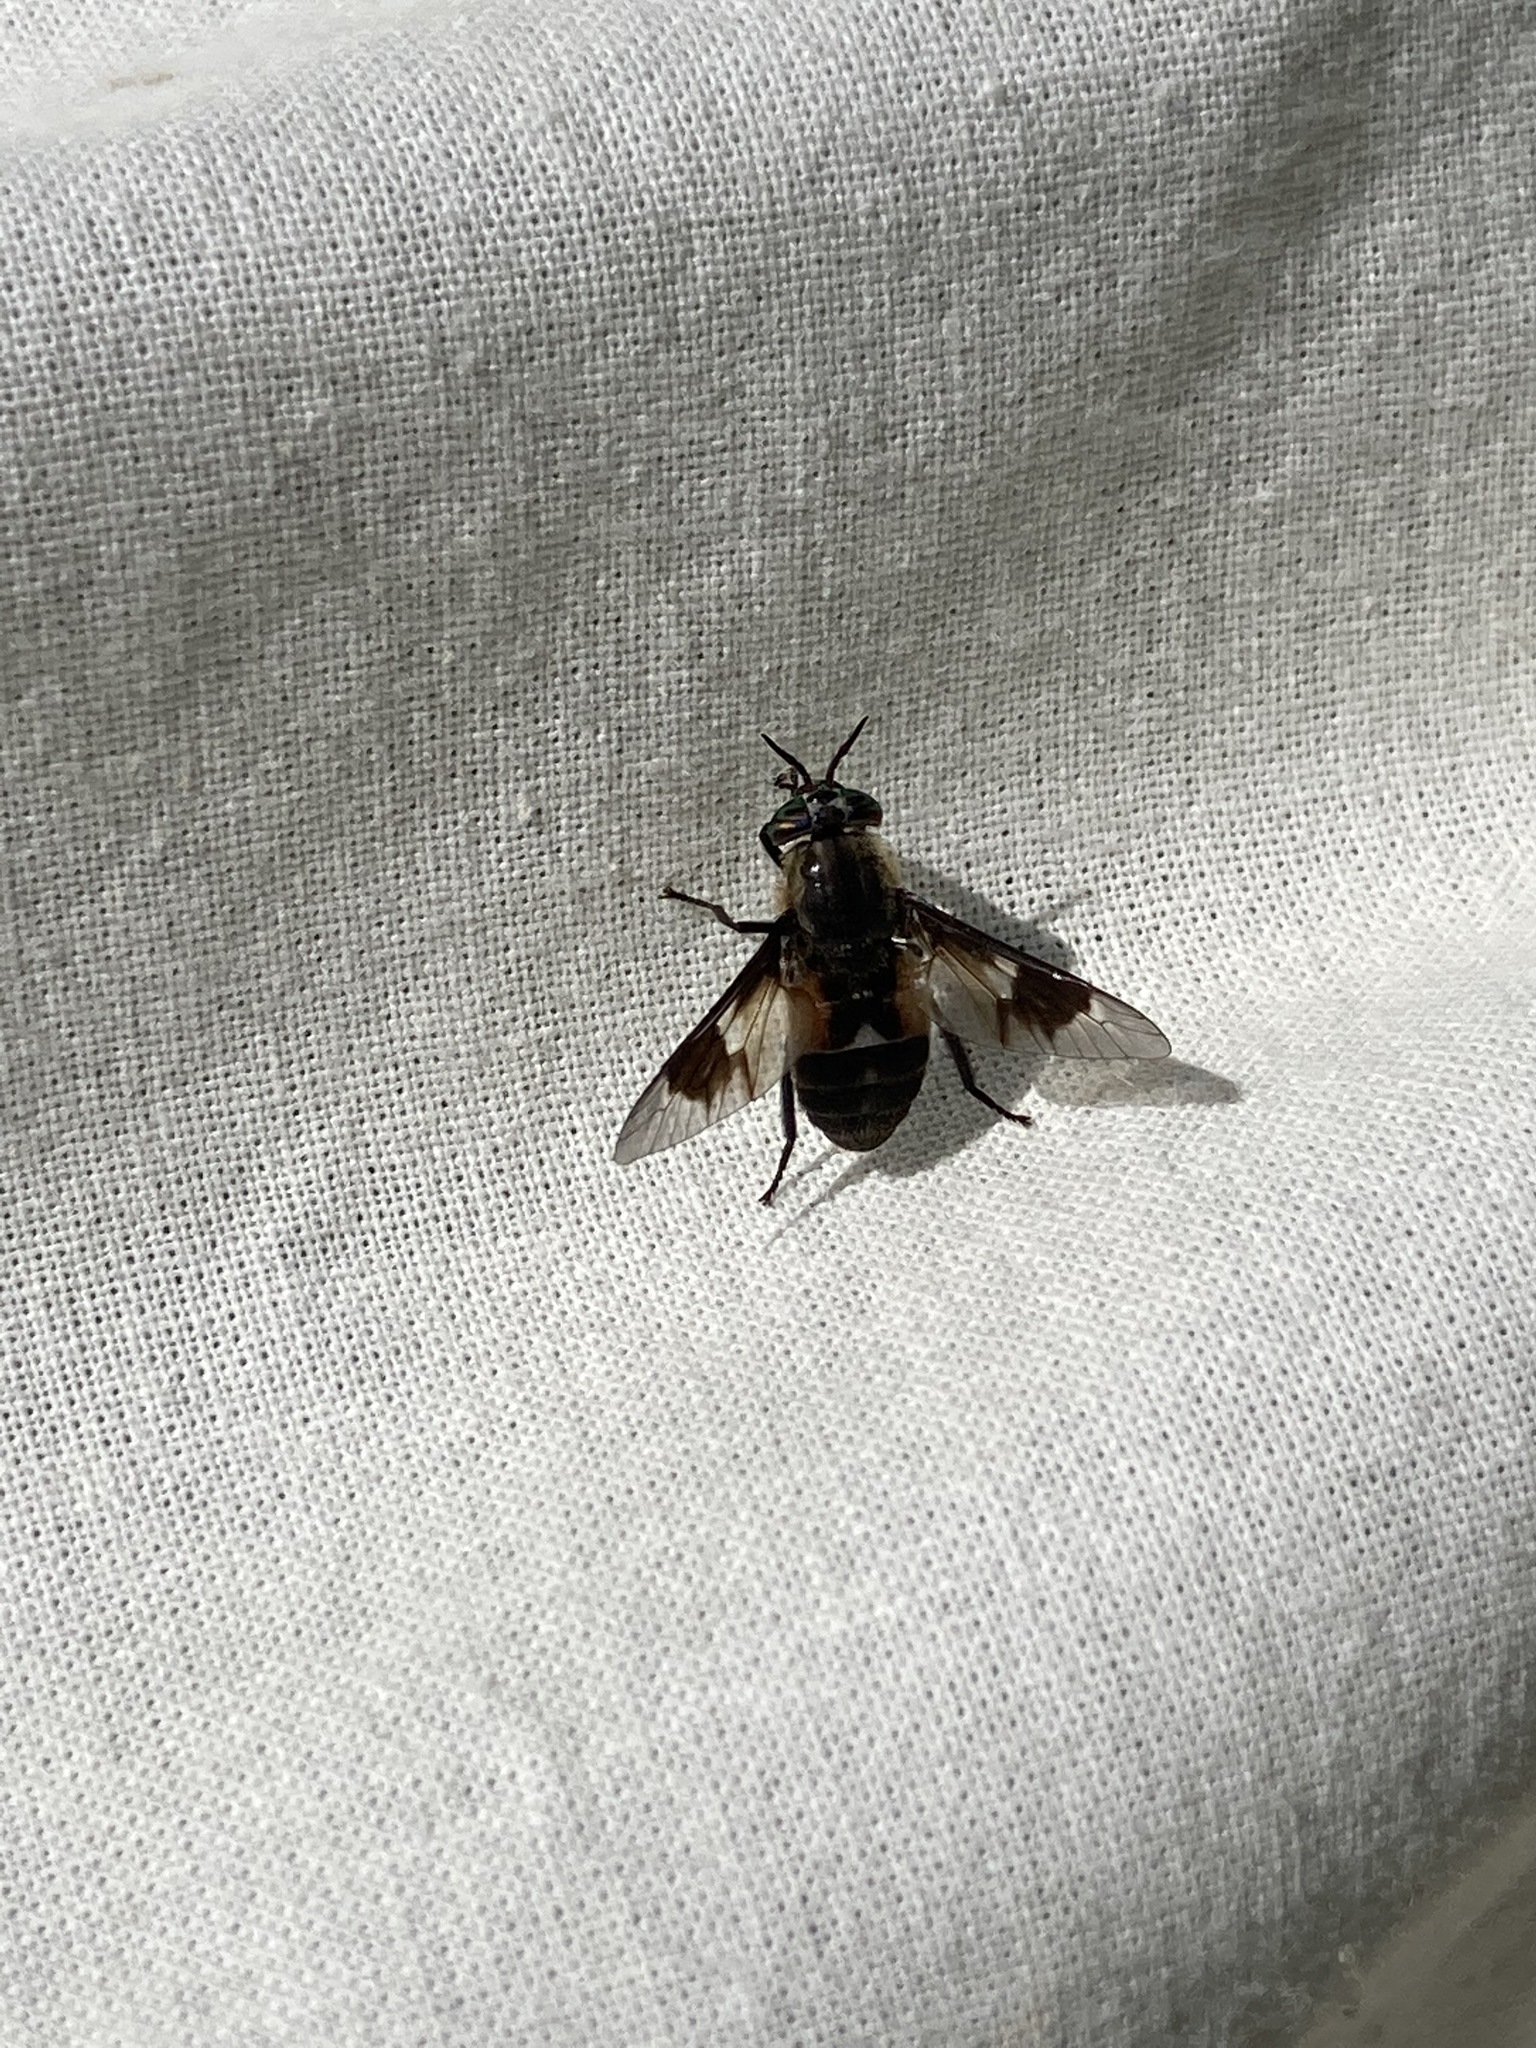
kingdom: Animalia
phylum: Arthropoda
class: Insecta
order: Diptera
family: Tabanidae
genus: Chrysops
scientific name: Chrysops excitans
